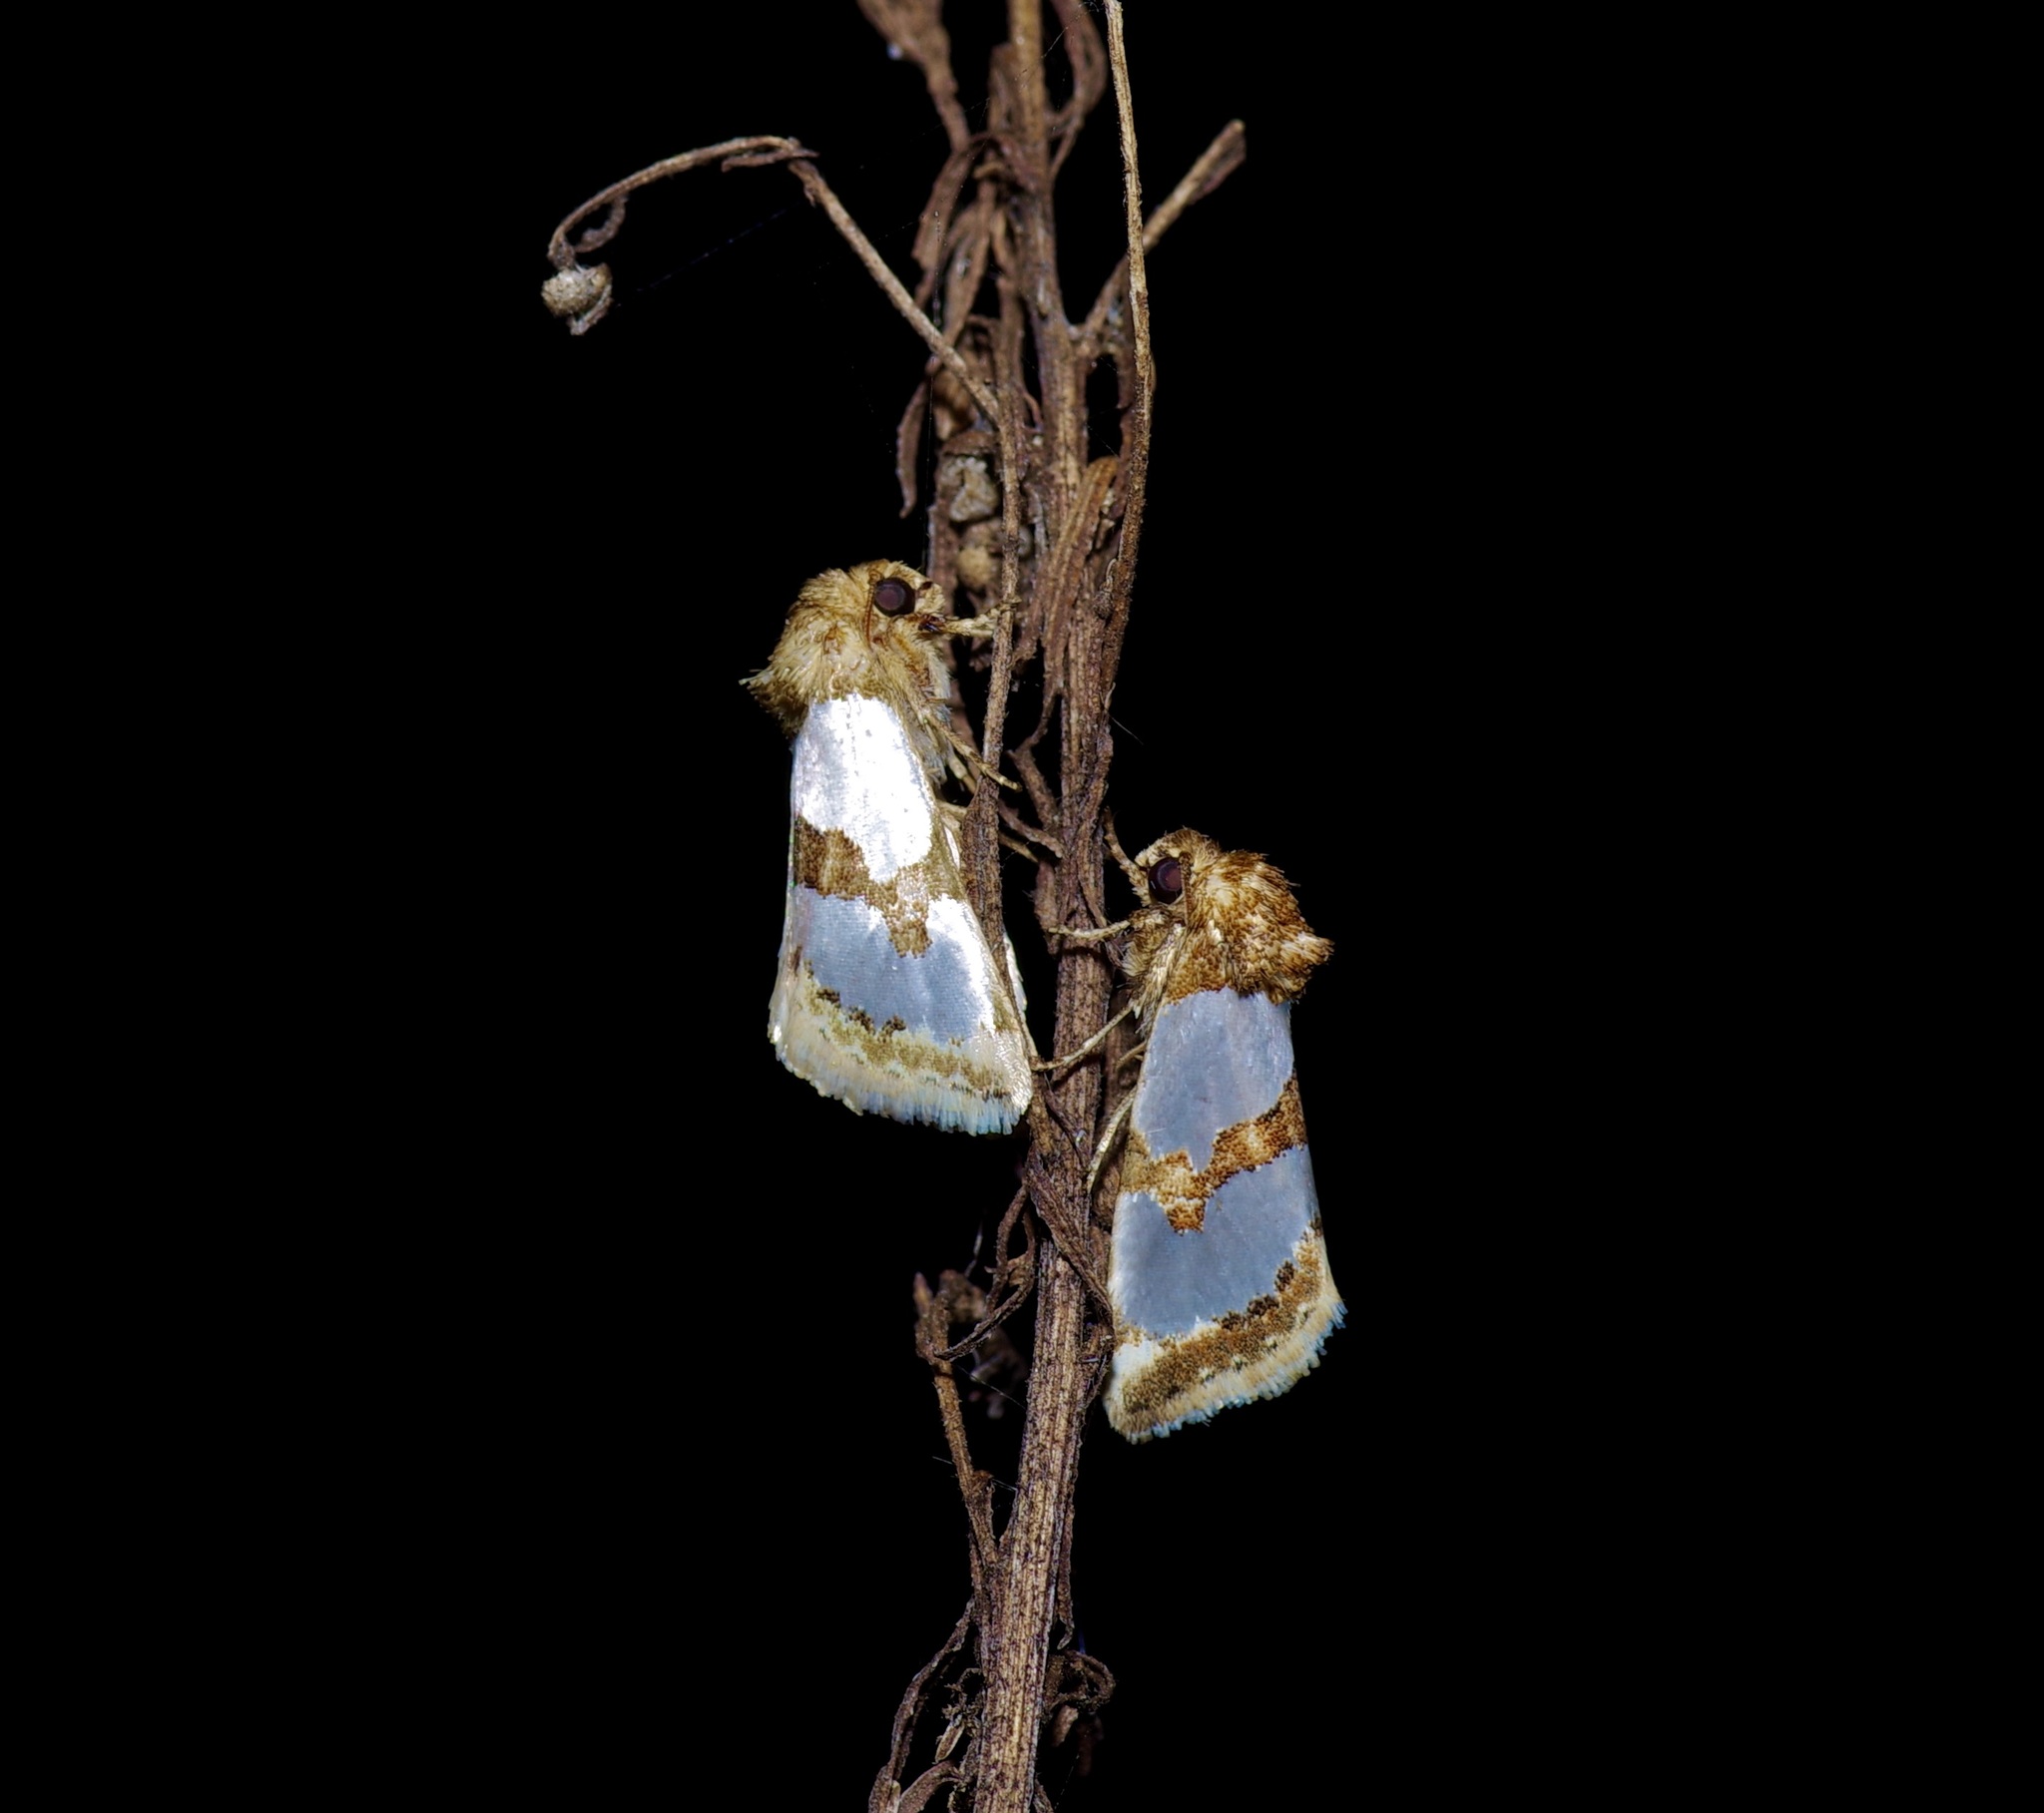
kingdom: Animalia
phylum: Arthropoda
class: Insecta
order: Lepidoptera
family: Noctuidae
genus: Schinia
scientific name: Schinia chrysellus
